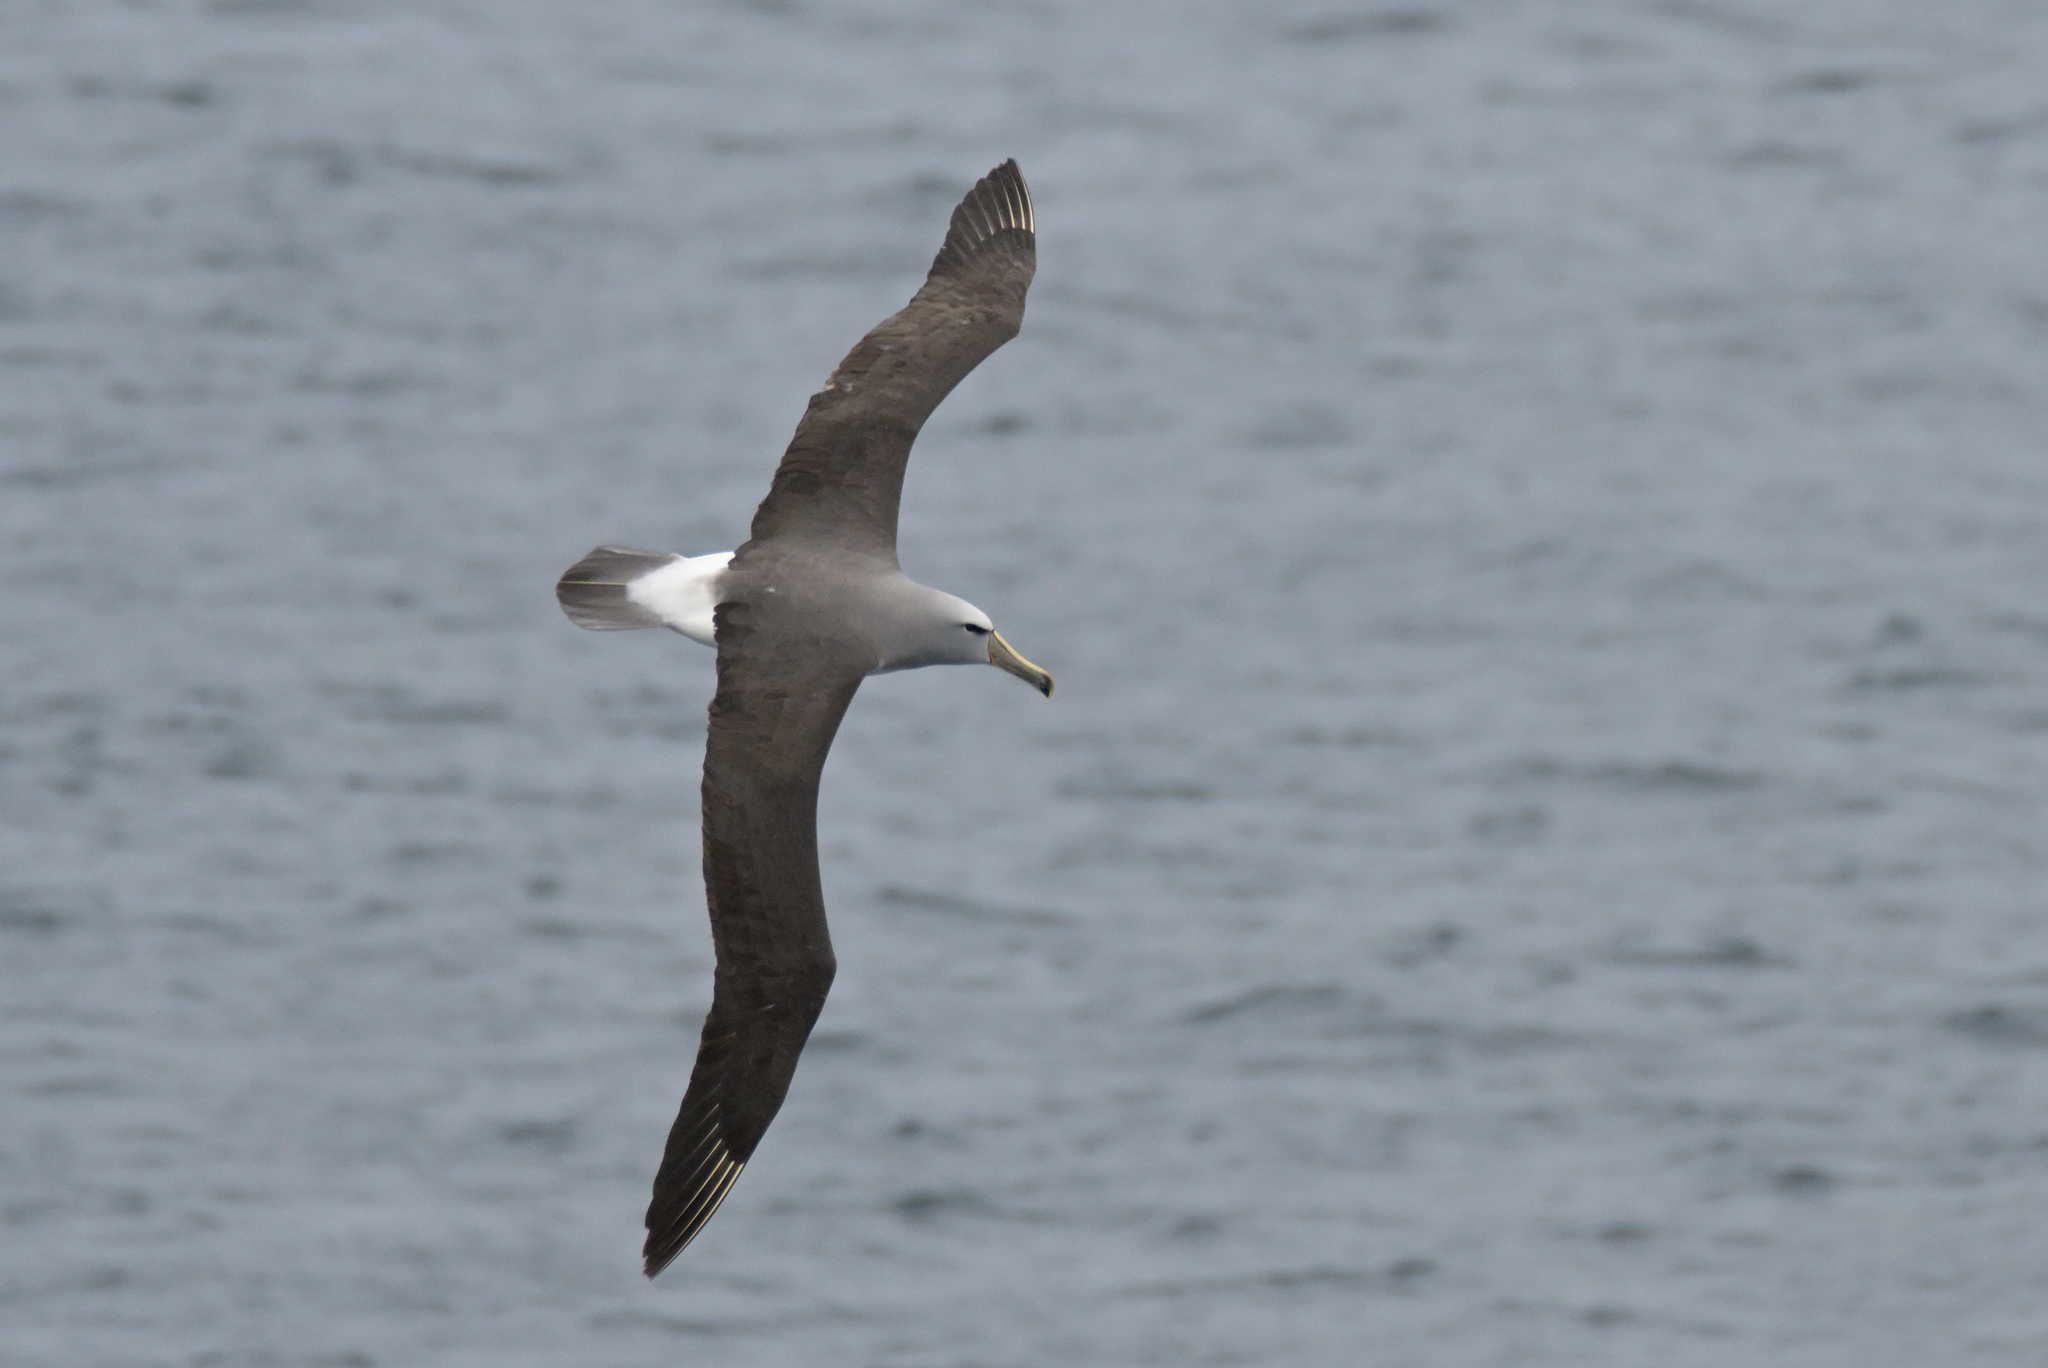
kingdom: Animalia
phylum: Chordata
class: Aves
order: Procellariiformes
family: Diomedeidae
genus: Thalassarche
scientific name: Thalassarche salvini
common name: Salvin's albatross
